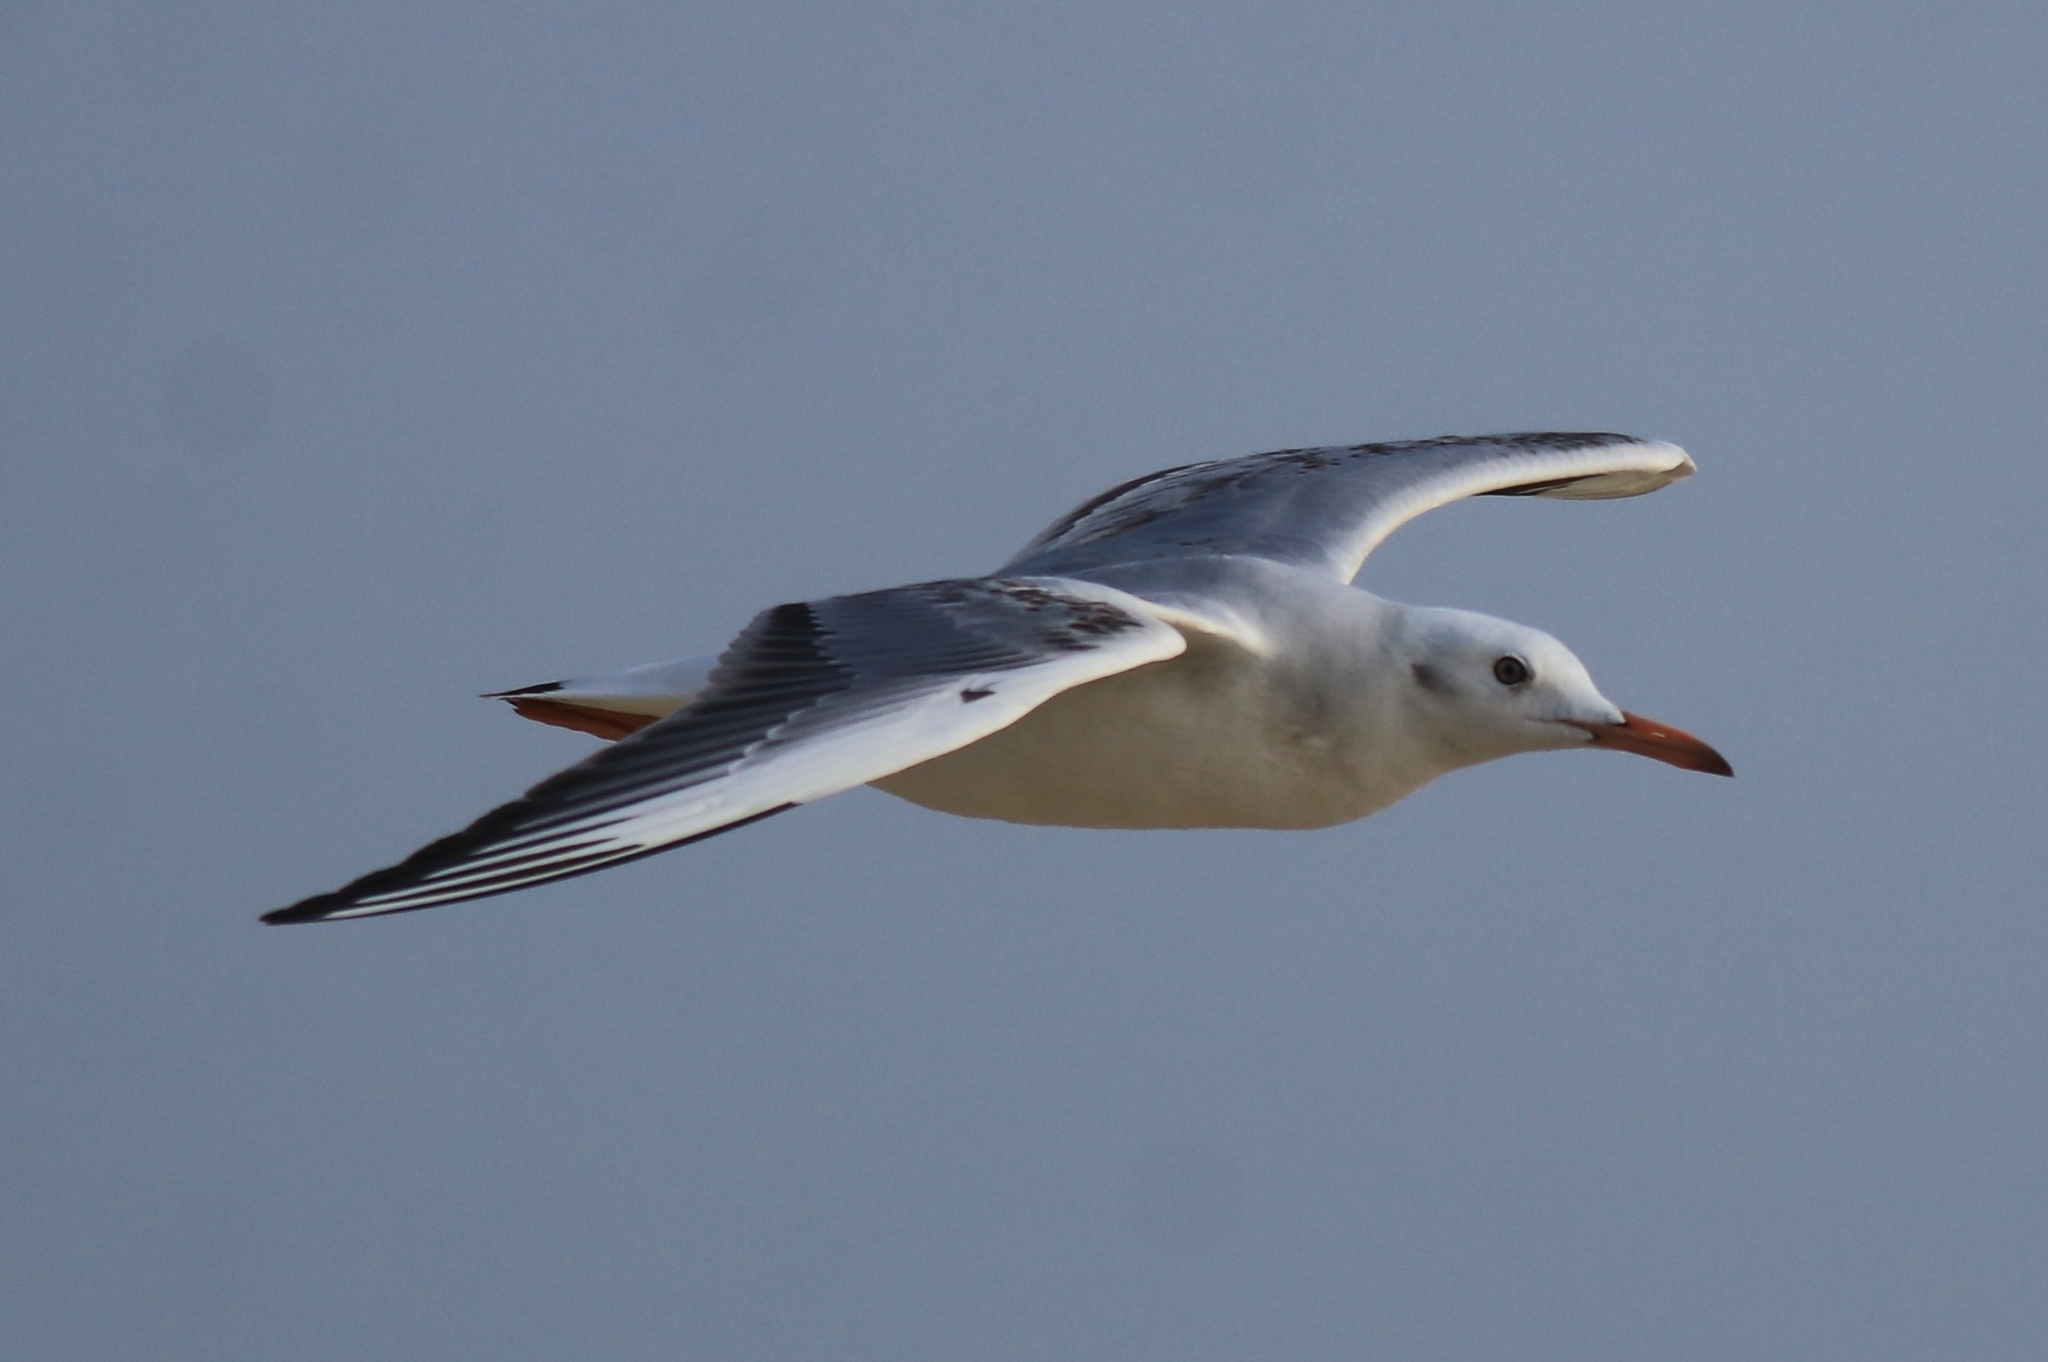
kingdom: Animalia
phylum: Chordata
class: Aves
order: Charadriiformes
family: Laridae
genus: Chroicocephalus
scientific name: Chroicocephalus genei
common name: Slender-billed gull
